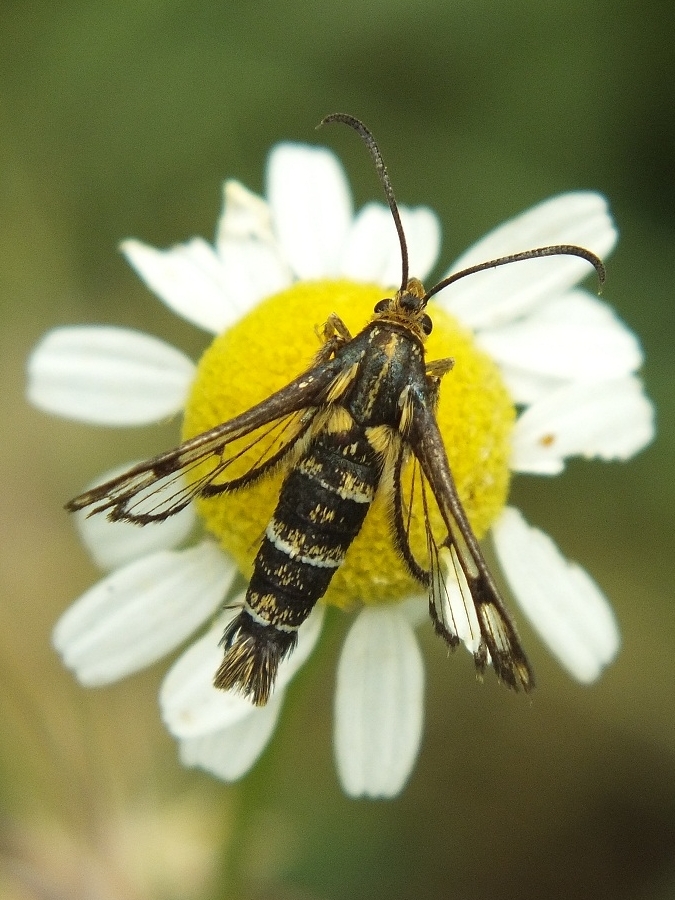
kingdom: Animalia
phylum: Arthropoda
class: Insecta
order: Lepidoptera
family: Sesiidae
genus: Chamaesphecia
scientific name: Chamaesphecia empiformis
